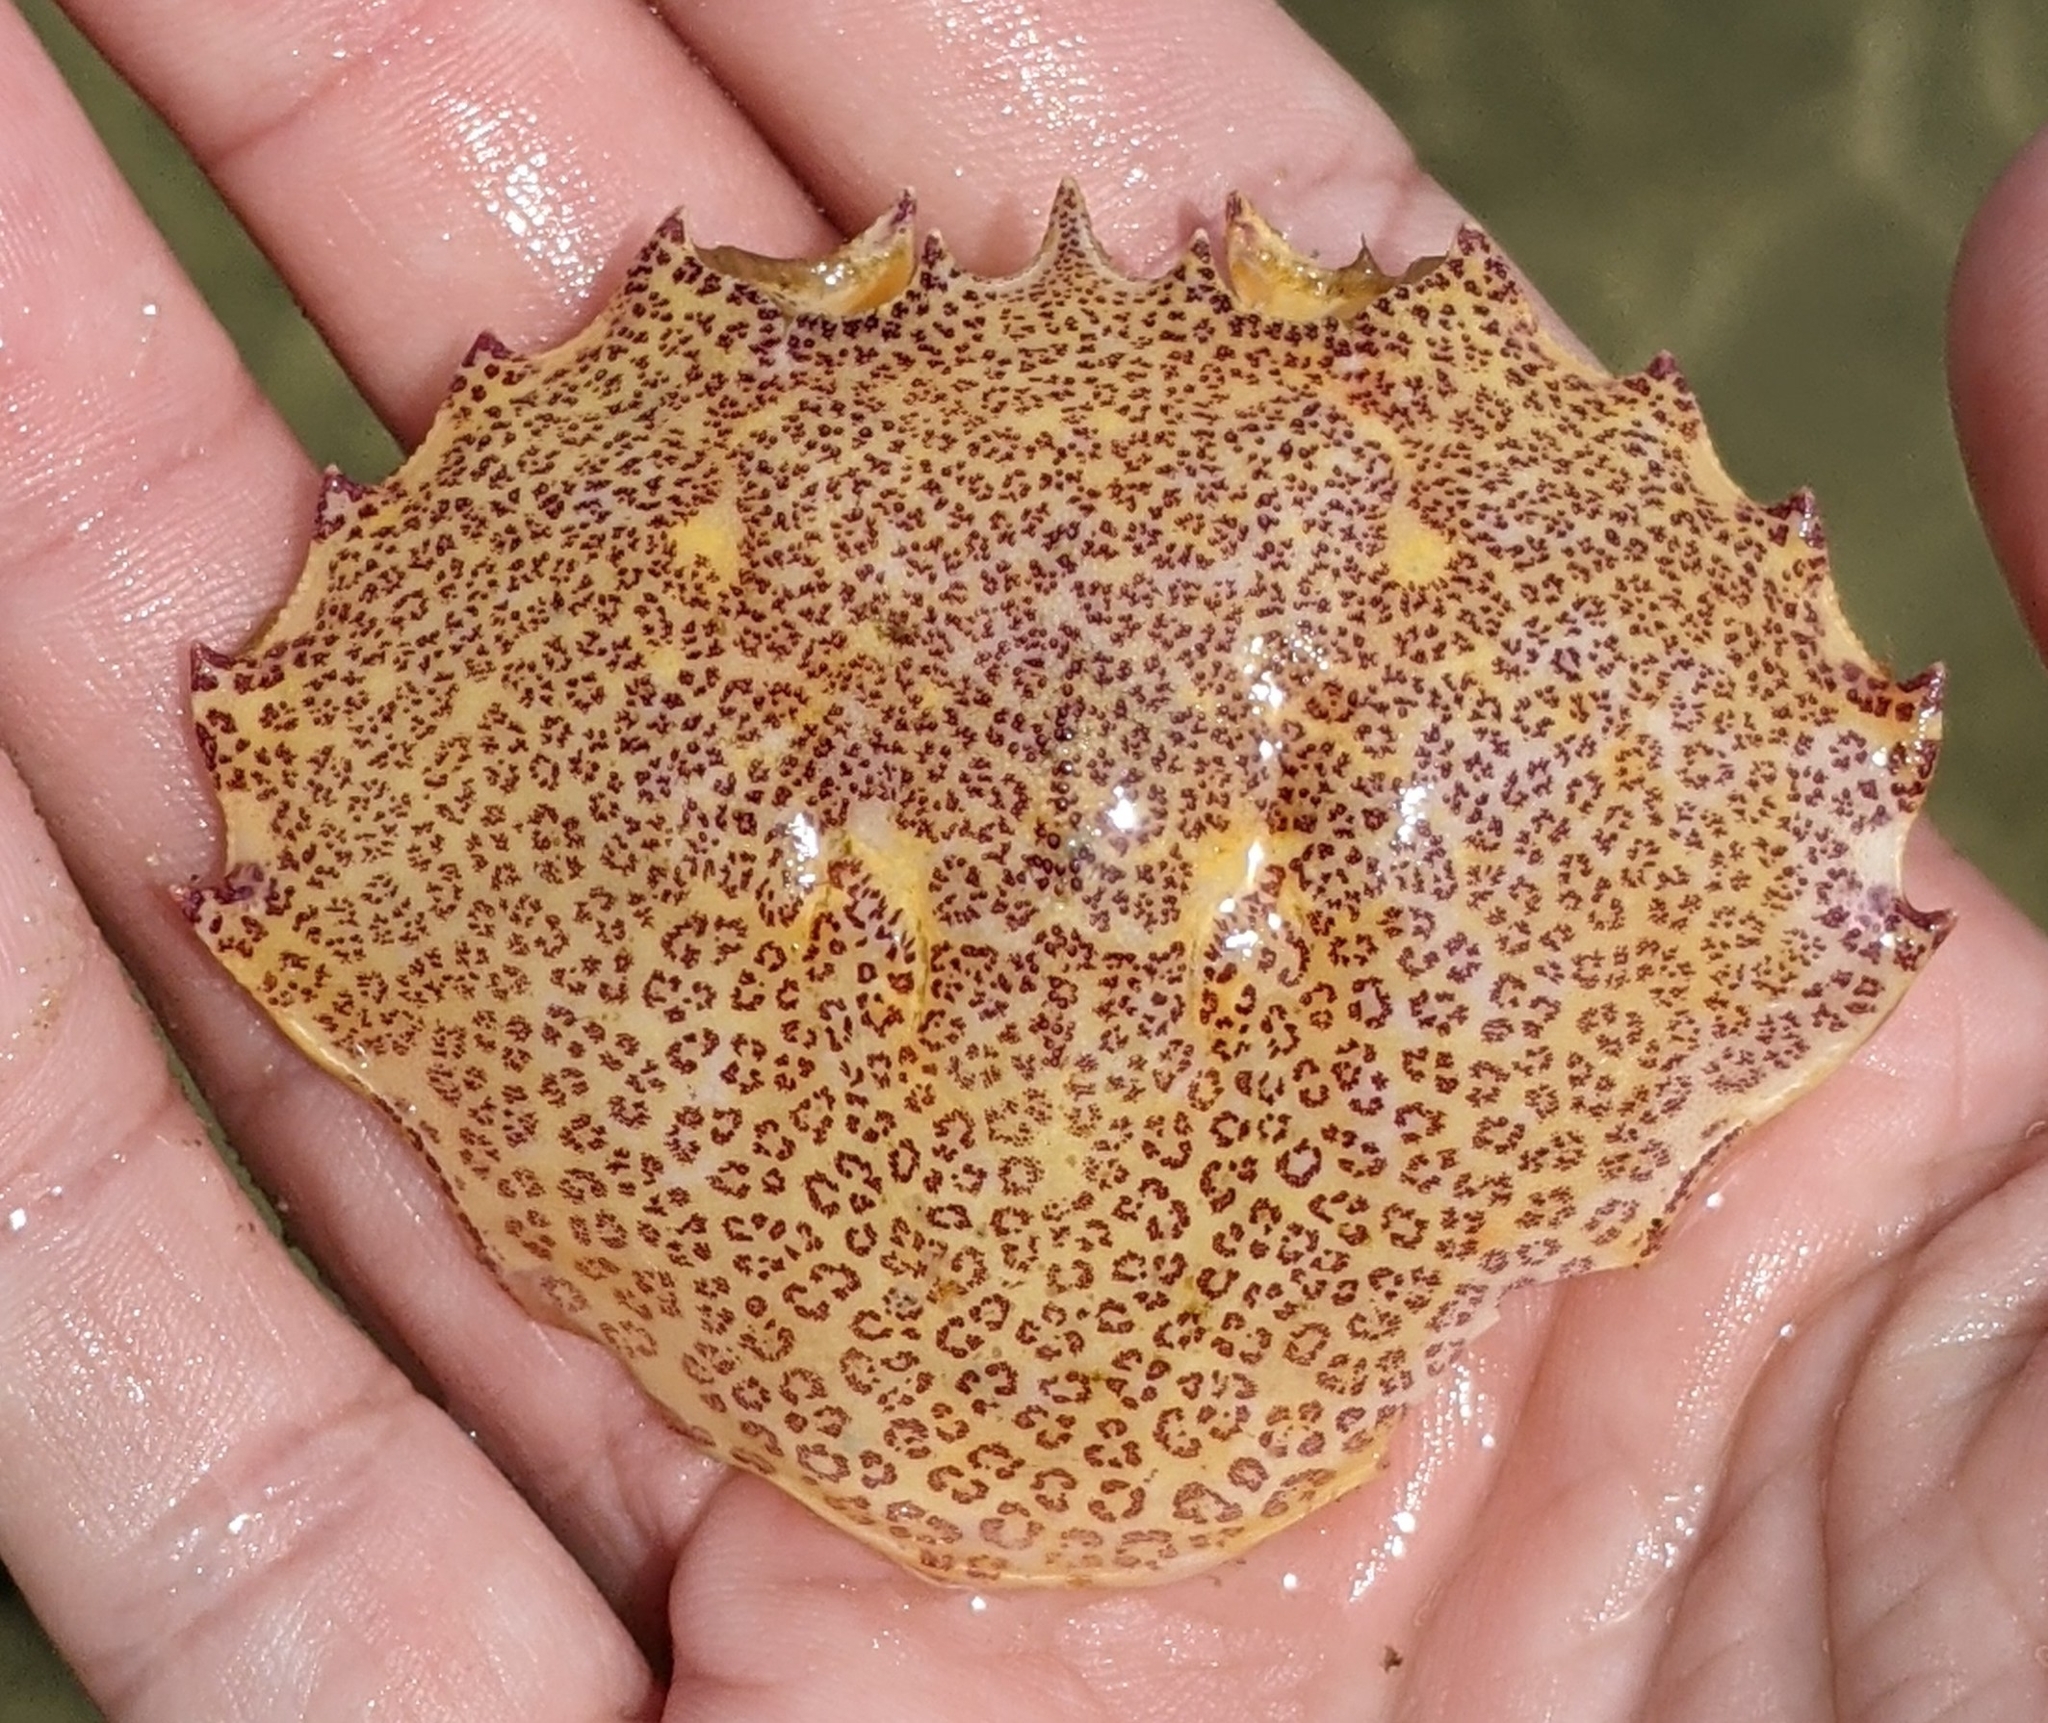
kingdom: Animalia
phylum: Arthropoda
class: Malacostraca
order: Decapoda
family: Ovalipidae
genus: Ovalipes
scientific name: Ovalipes ocellatus
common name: Lady crab
